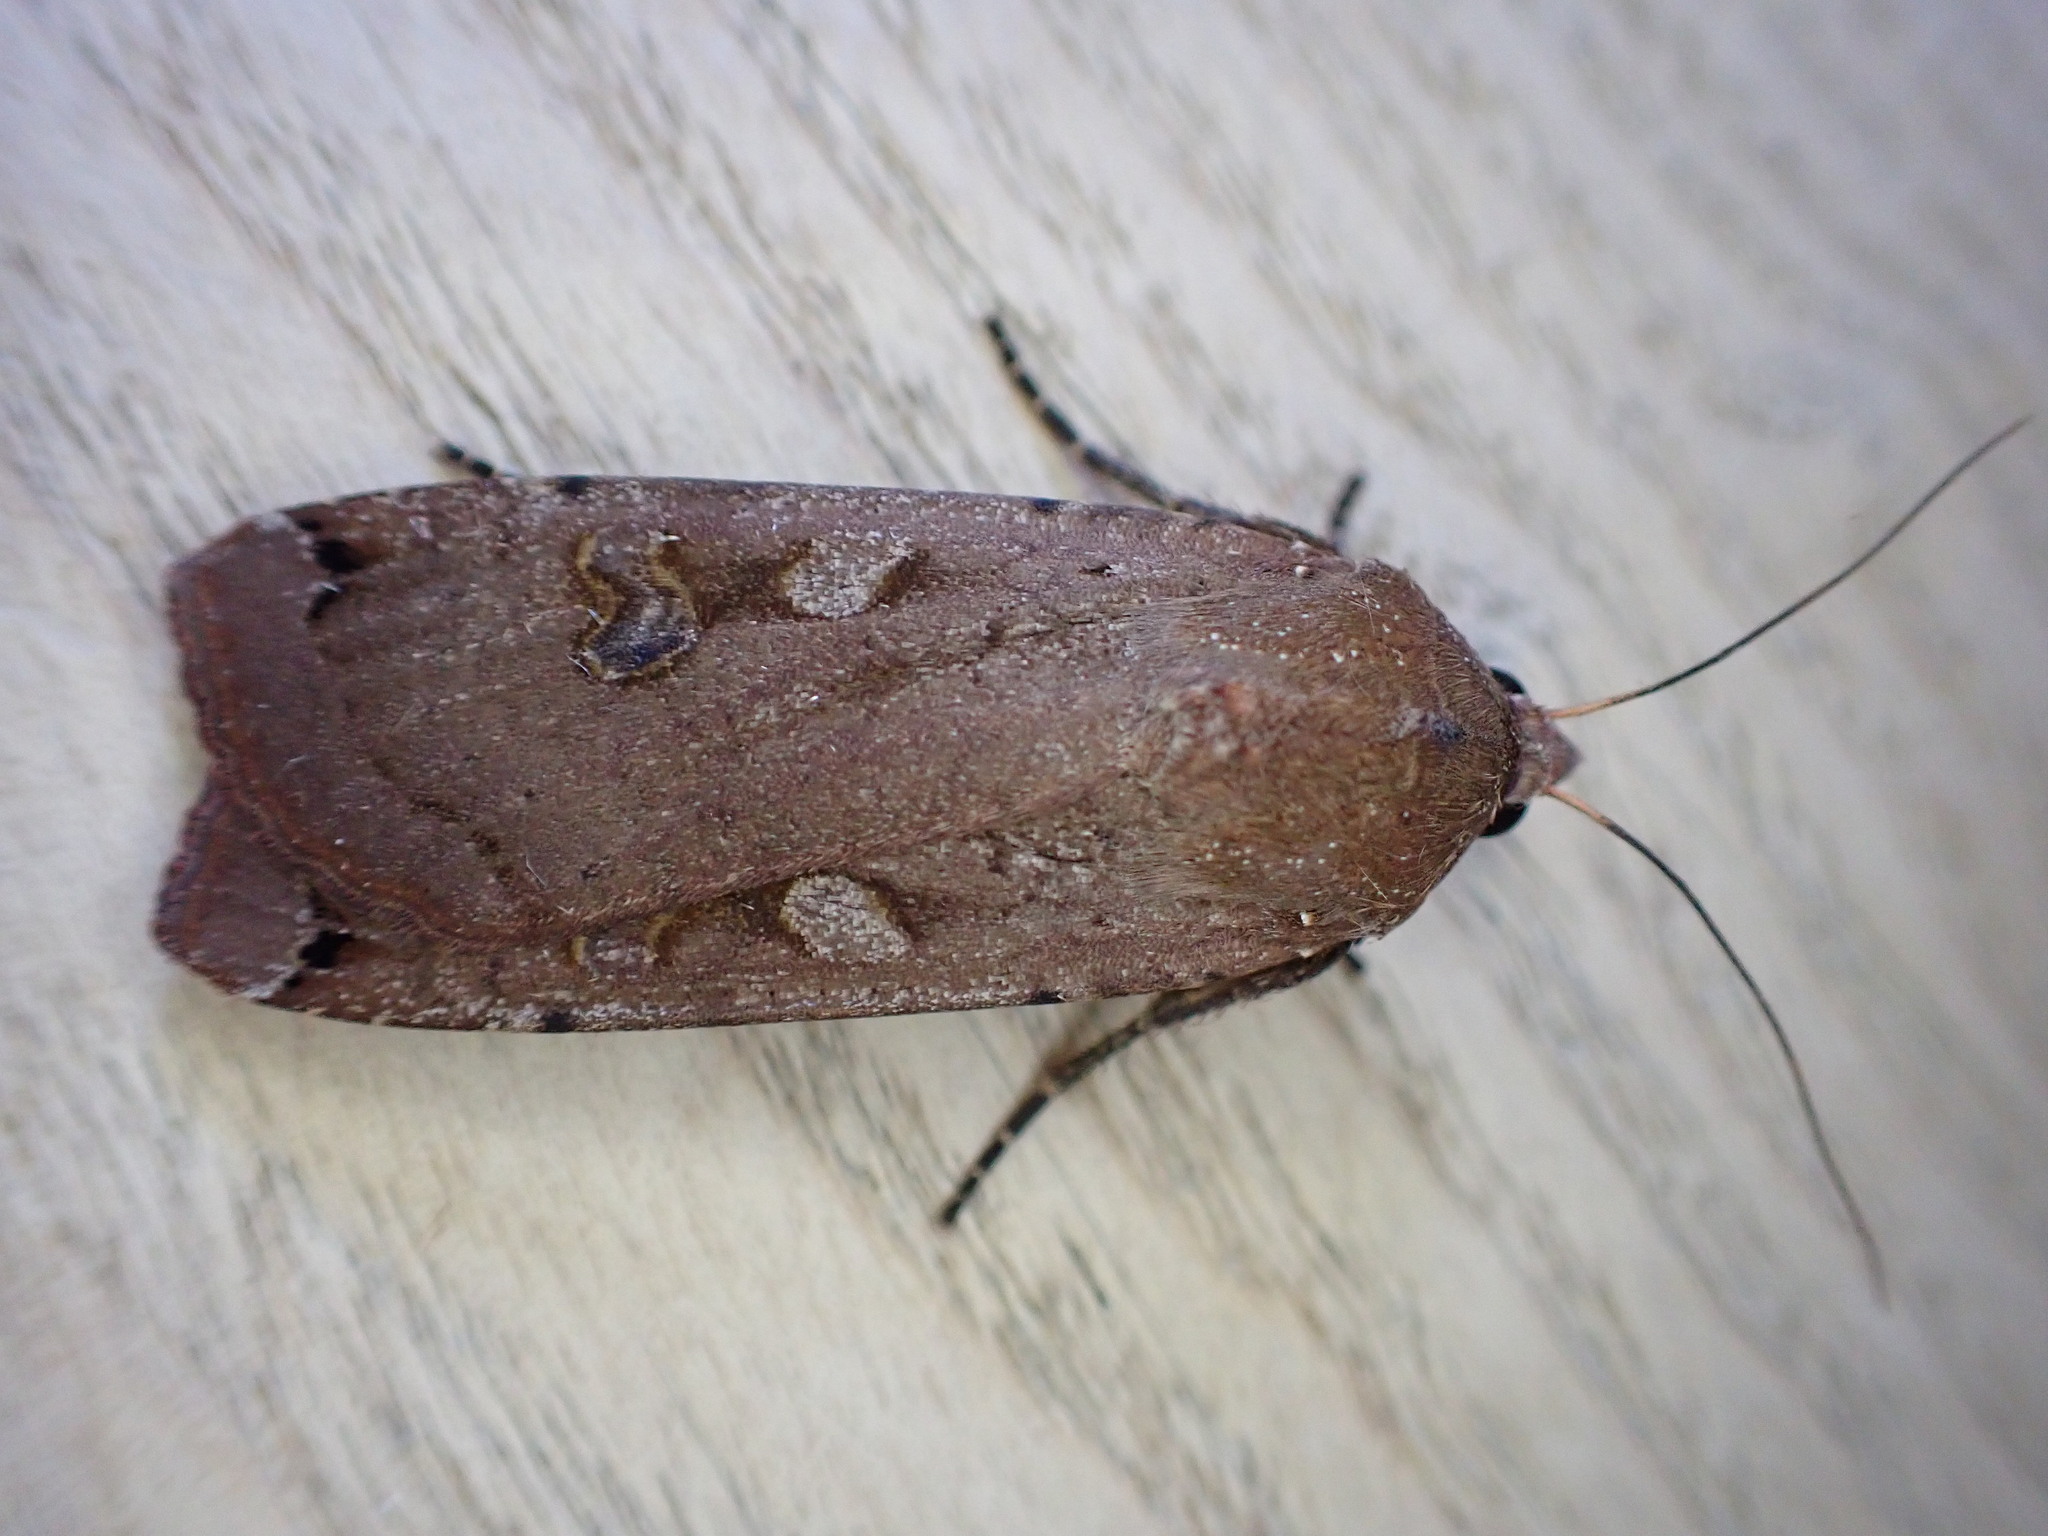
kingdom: Animalia
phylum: Arthropoda
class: Insecta
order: Lepidoptera
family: Noctuidae
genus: Noctua
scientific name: Noctua pronuba
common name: Large yellow underwing
